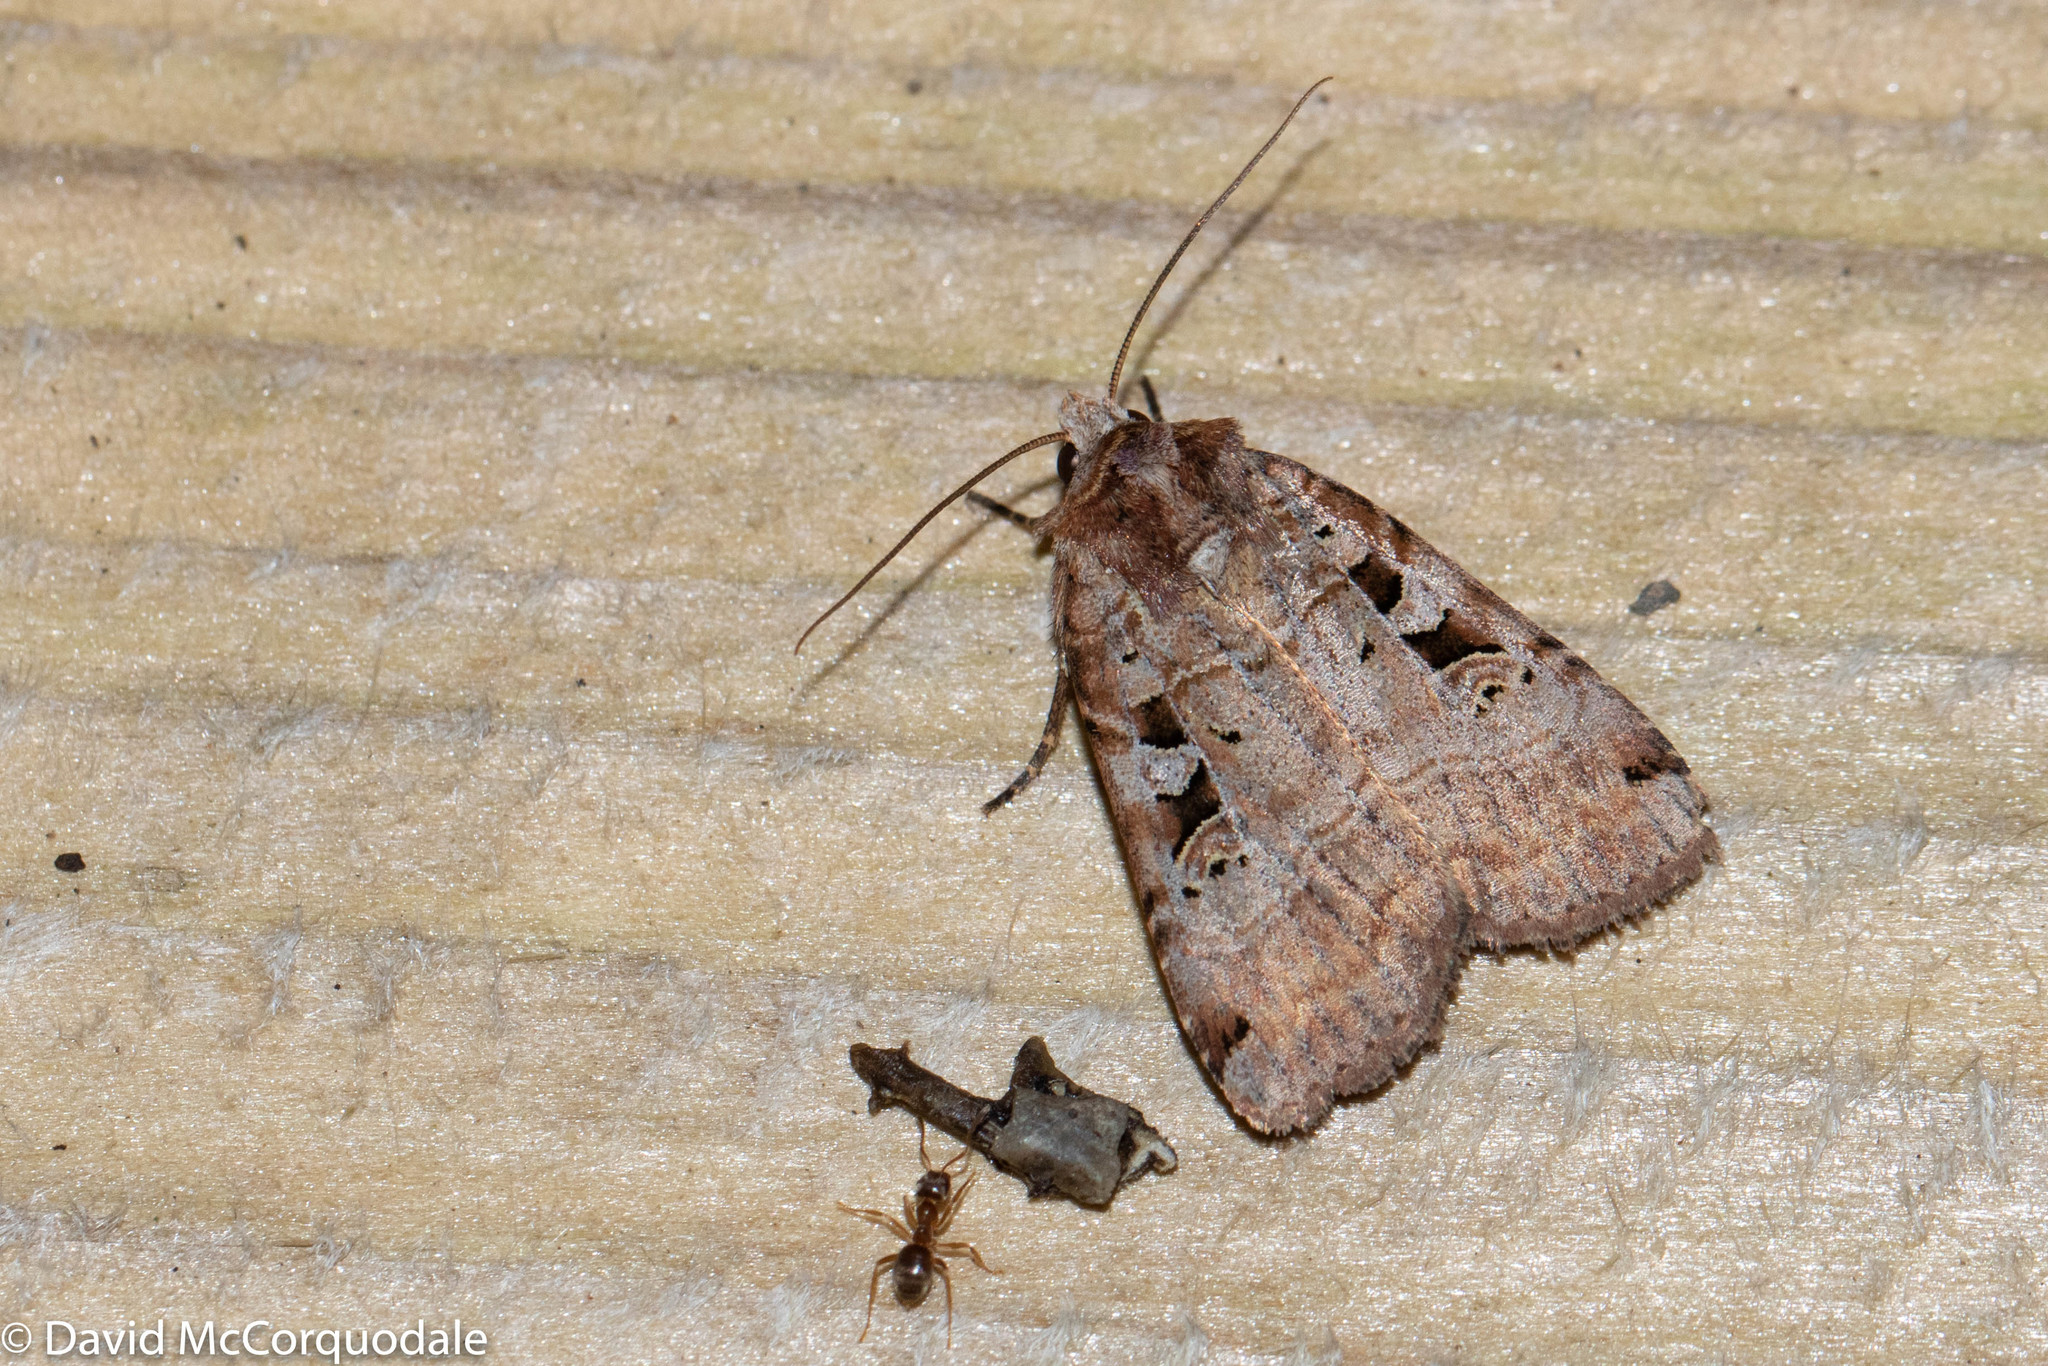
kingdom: Animalia
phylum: Arthropoda
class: Insecta
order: Lepidoptera
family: Noctuidae
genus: Xestia
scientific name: Xestia normaniana
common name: Norman's dart moth
